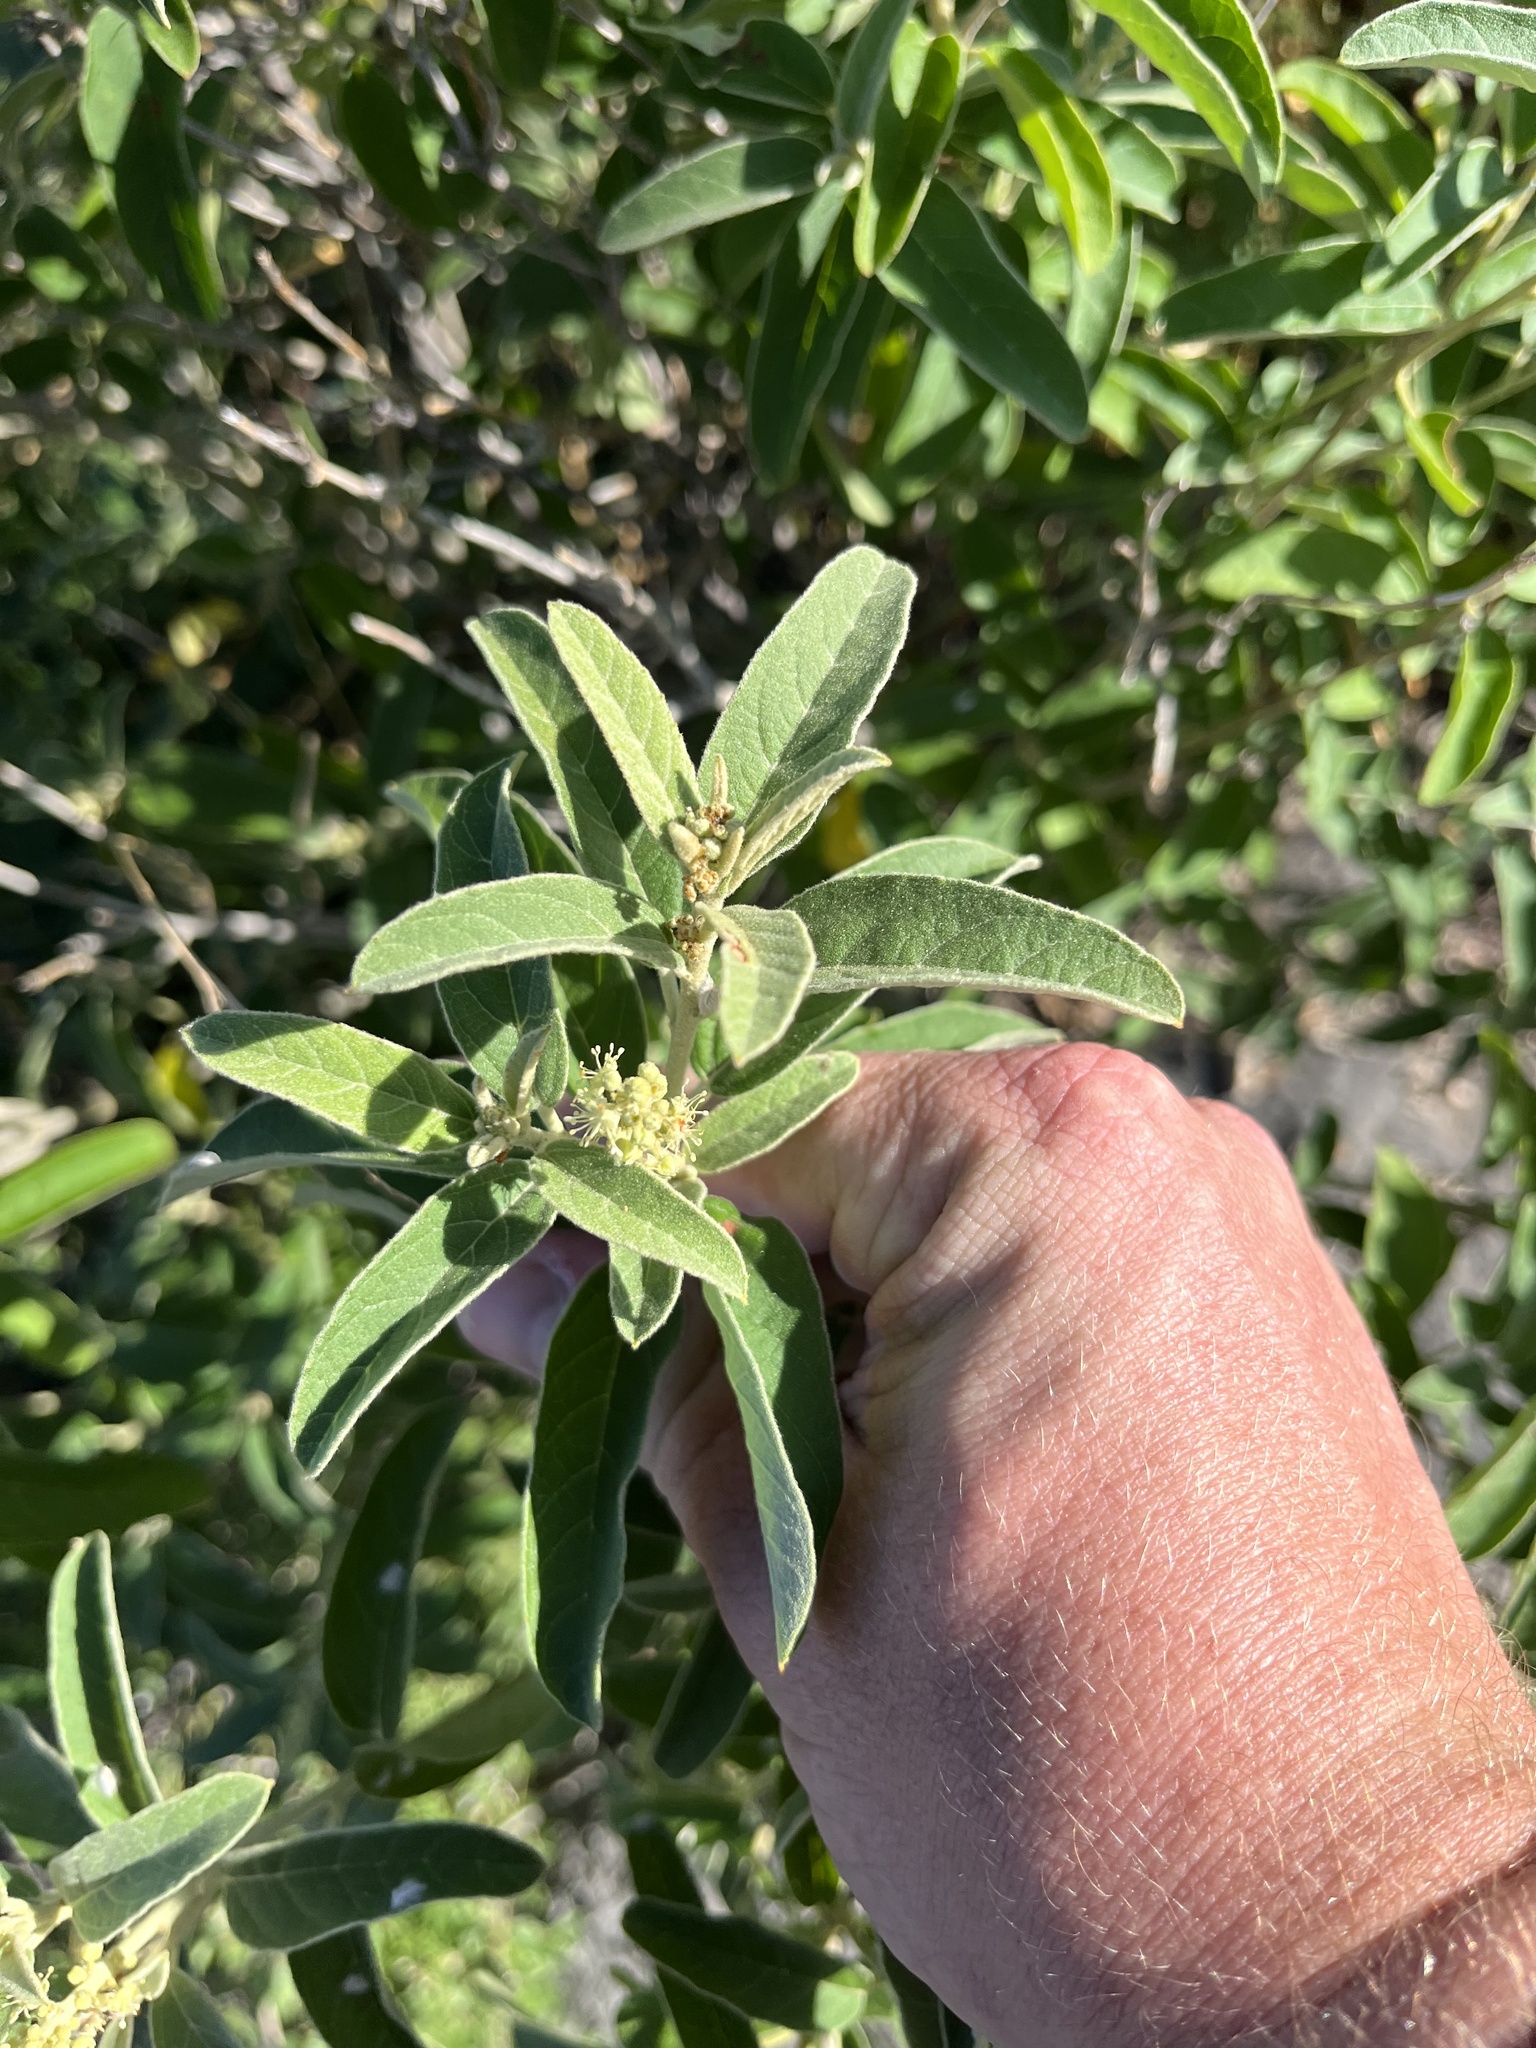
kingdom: Plantae
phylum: Tracheophyta
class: Magnoliopsida
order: Malpighiales
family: Euphorbiaceae
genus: Croton
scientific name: Croton incanus
